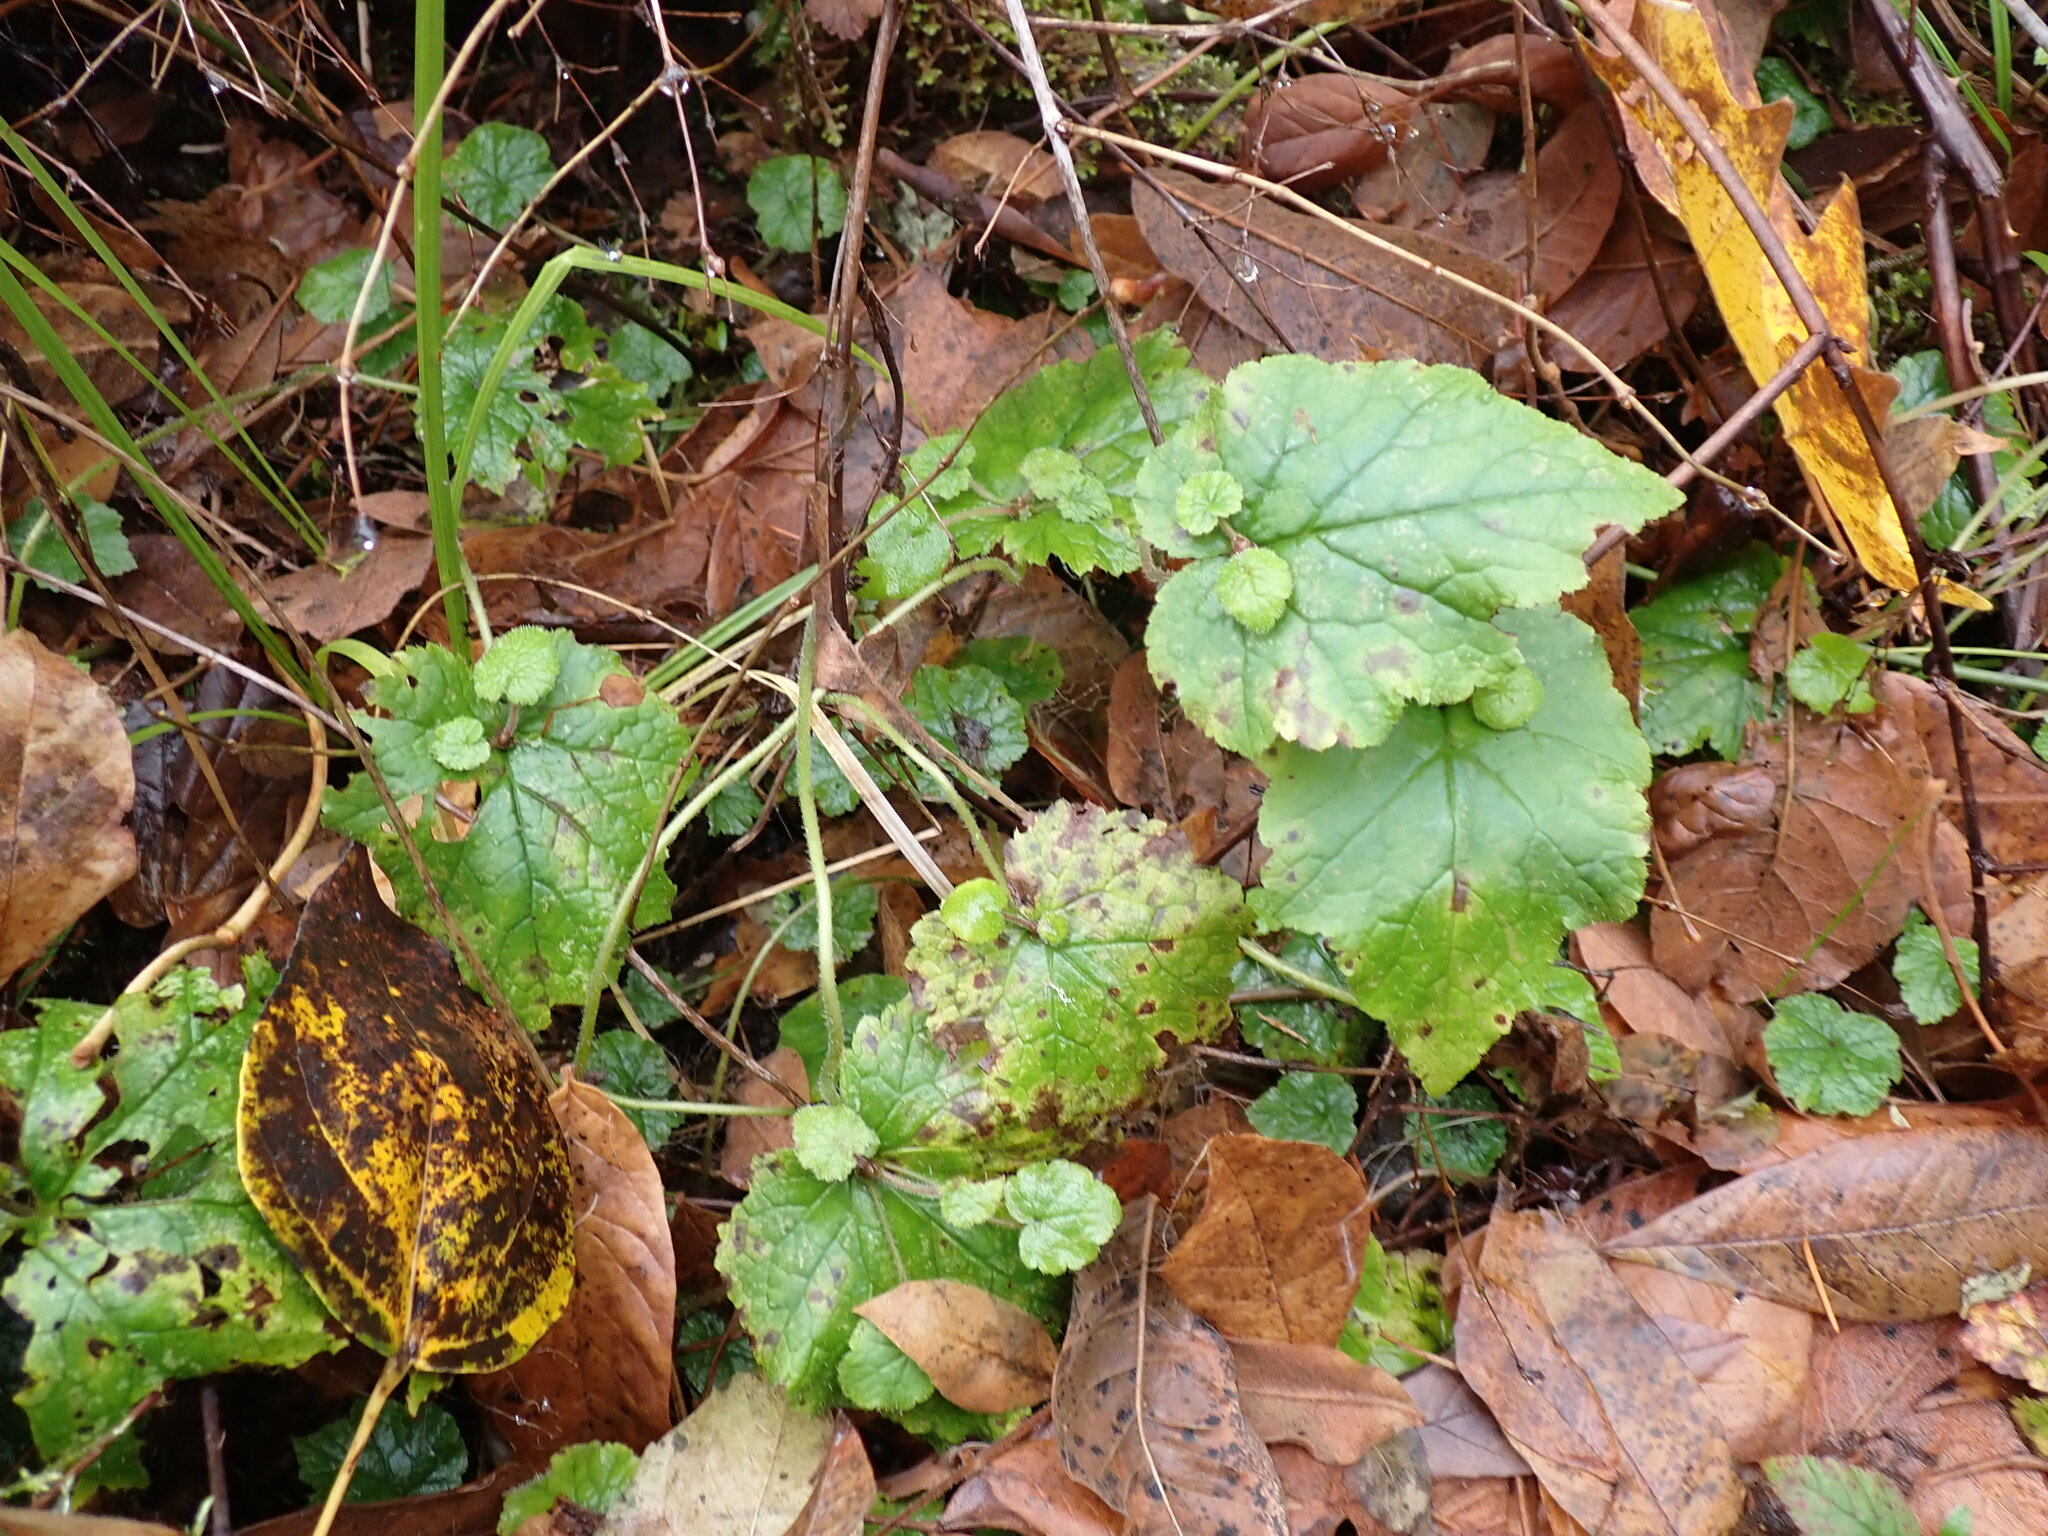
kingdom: Plantae
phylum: Tracheophyta
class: Magnoliopsida
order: Saxifragales
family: Saxifragaceae
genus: Tolmiea
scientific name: Tolmiea menziesii
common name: Pick-a-back-plant
